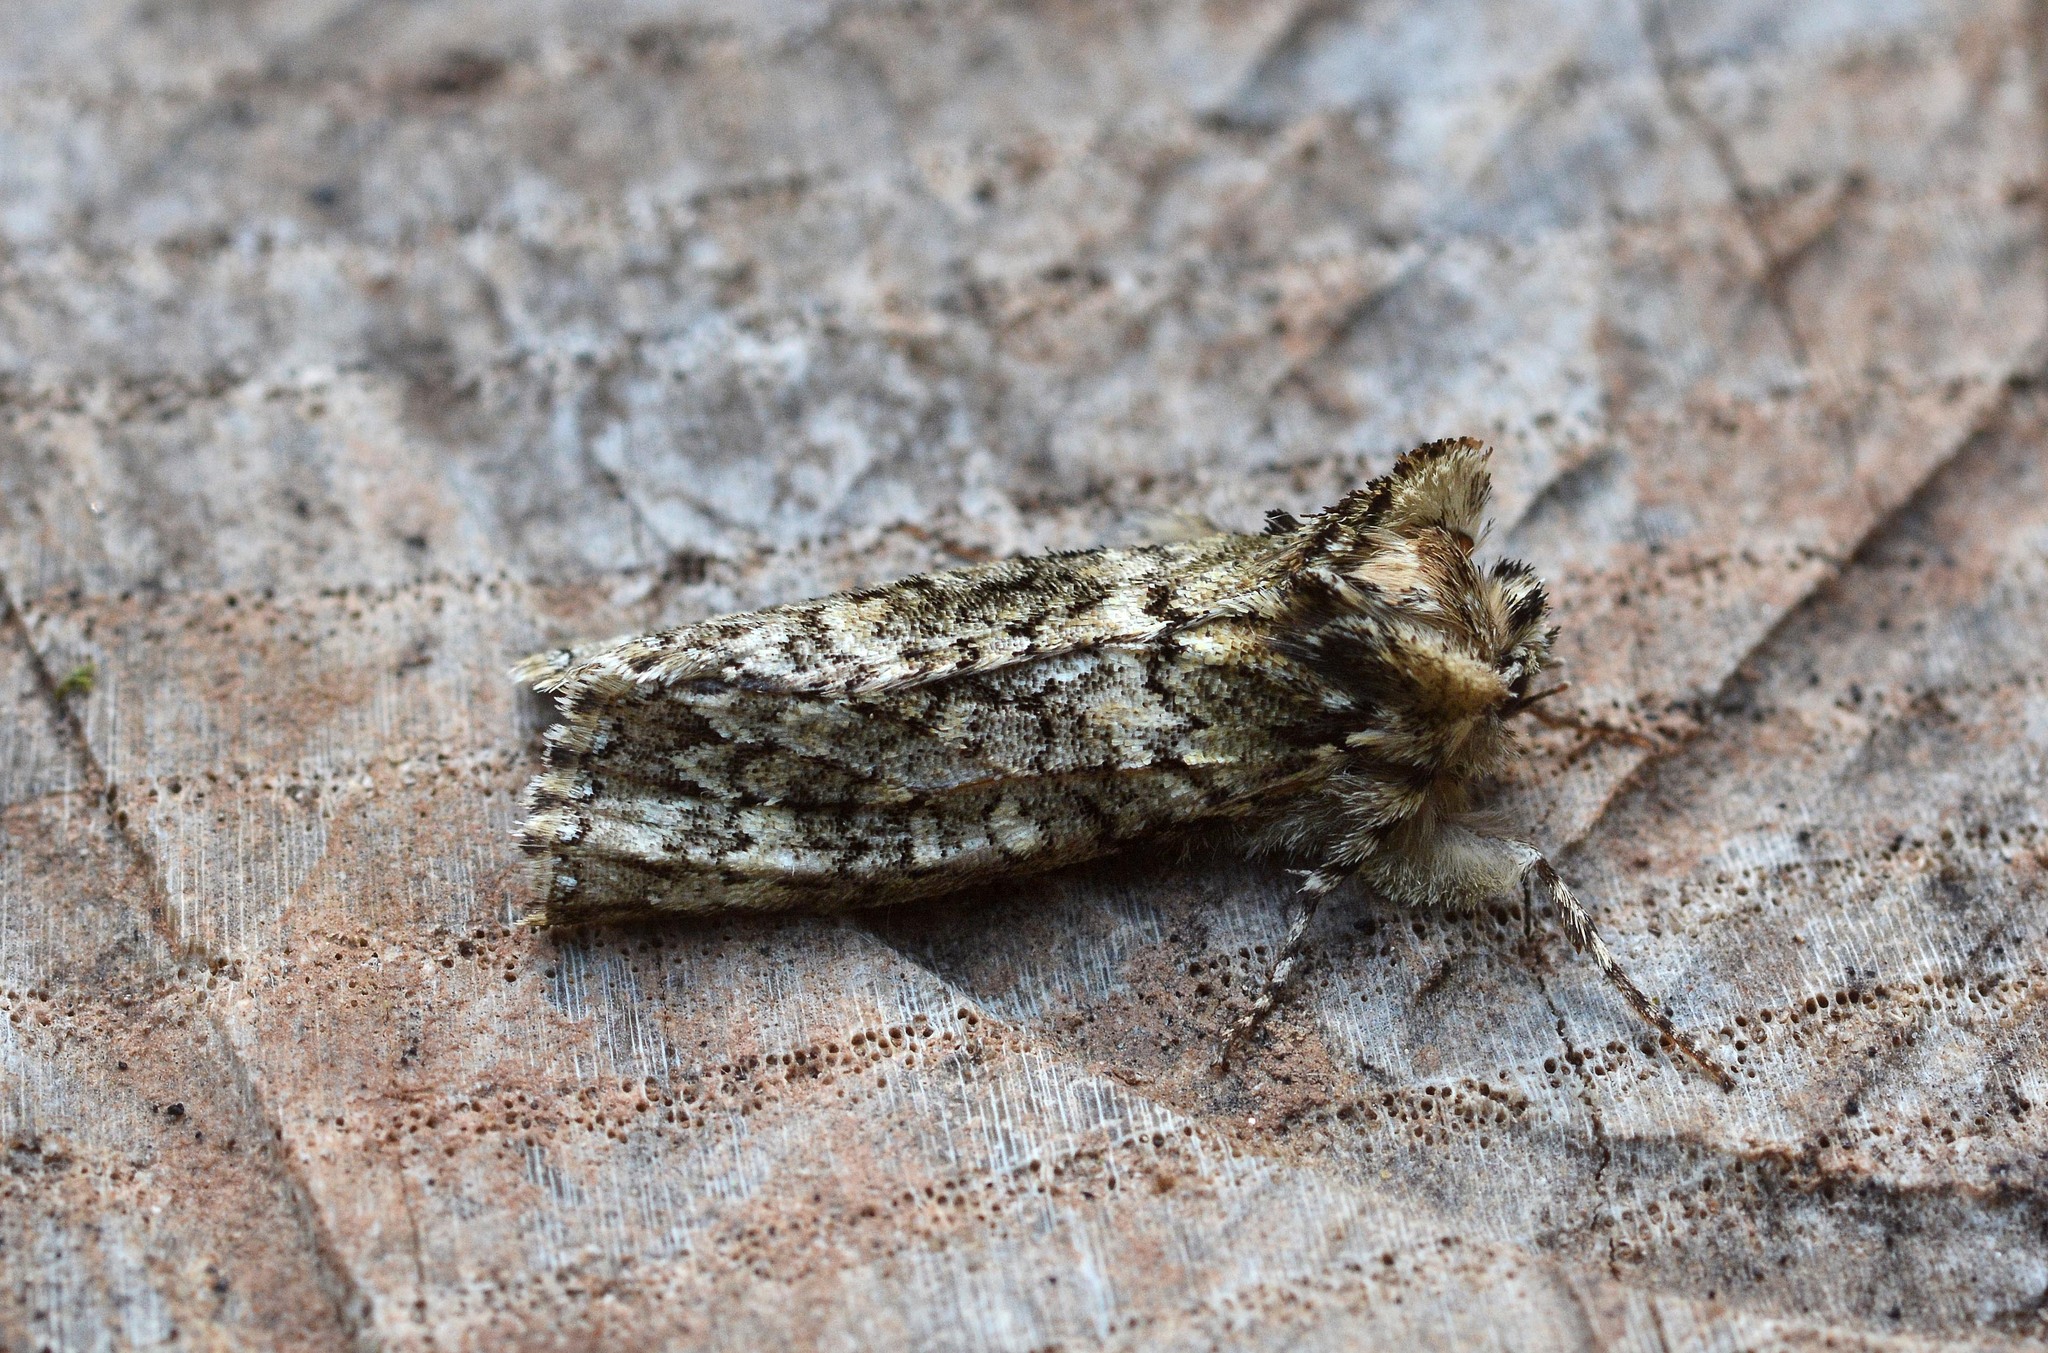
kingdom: Animalia
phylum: Arthropoda
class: Insecta
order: Lepidoptera
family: Drepanidae
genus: Polyploca
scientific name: Polyploca ridens
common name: Frosted green
